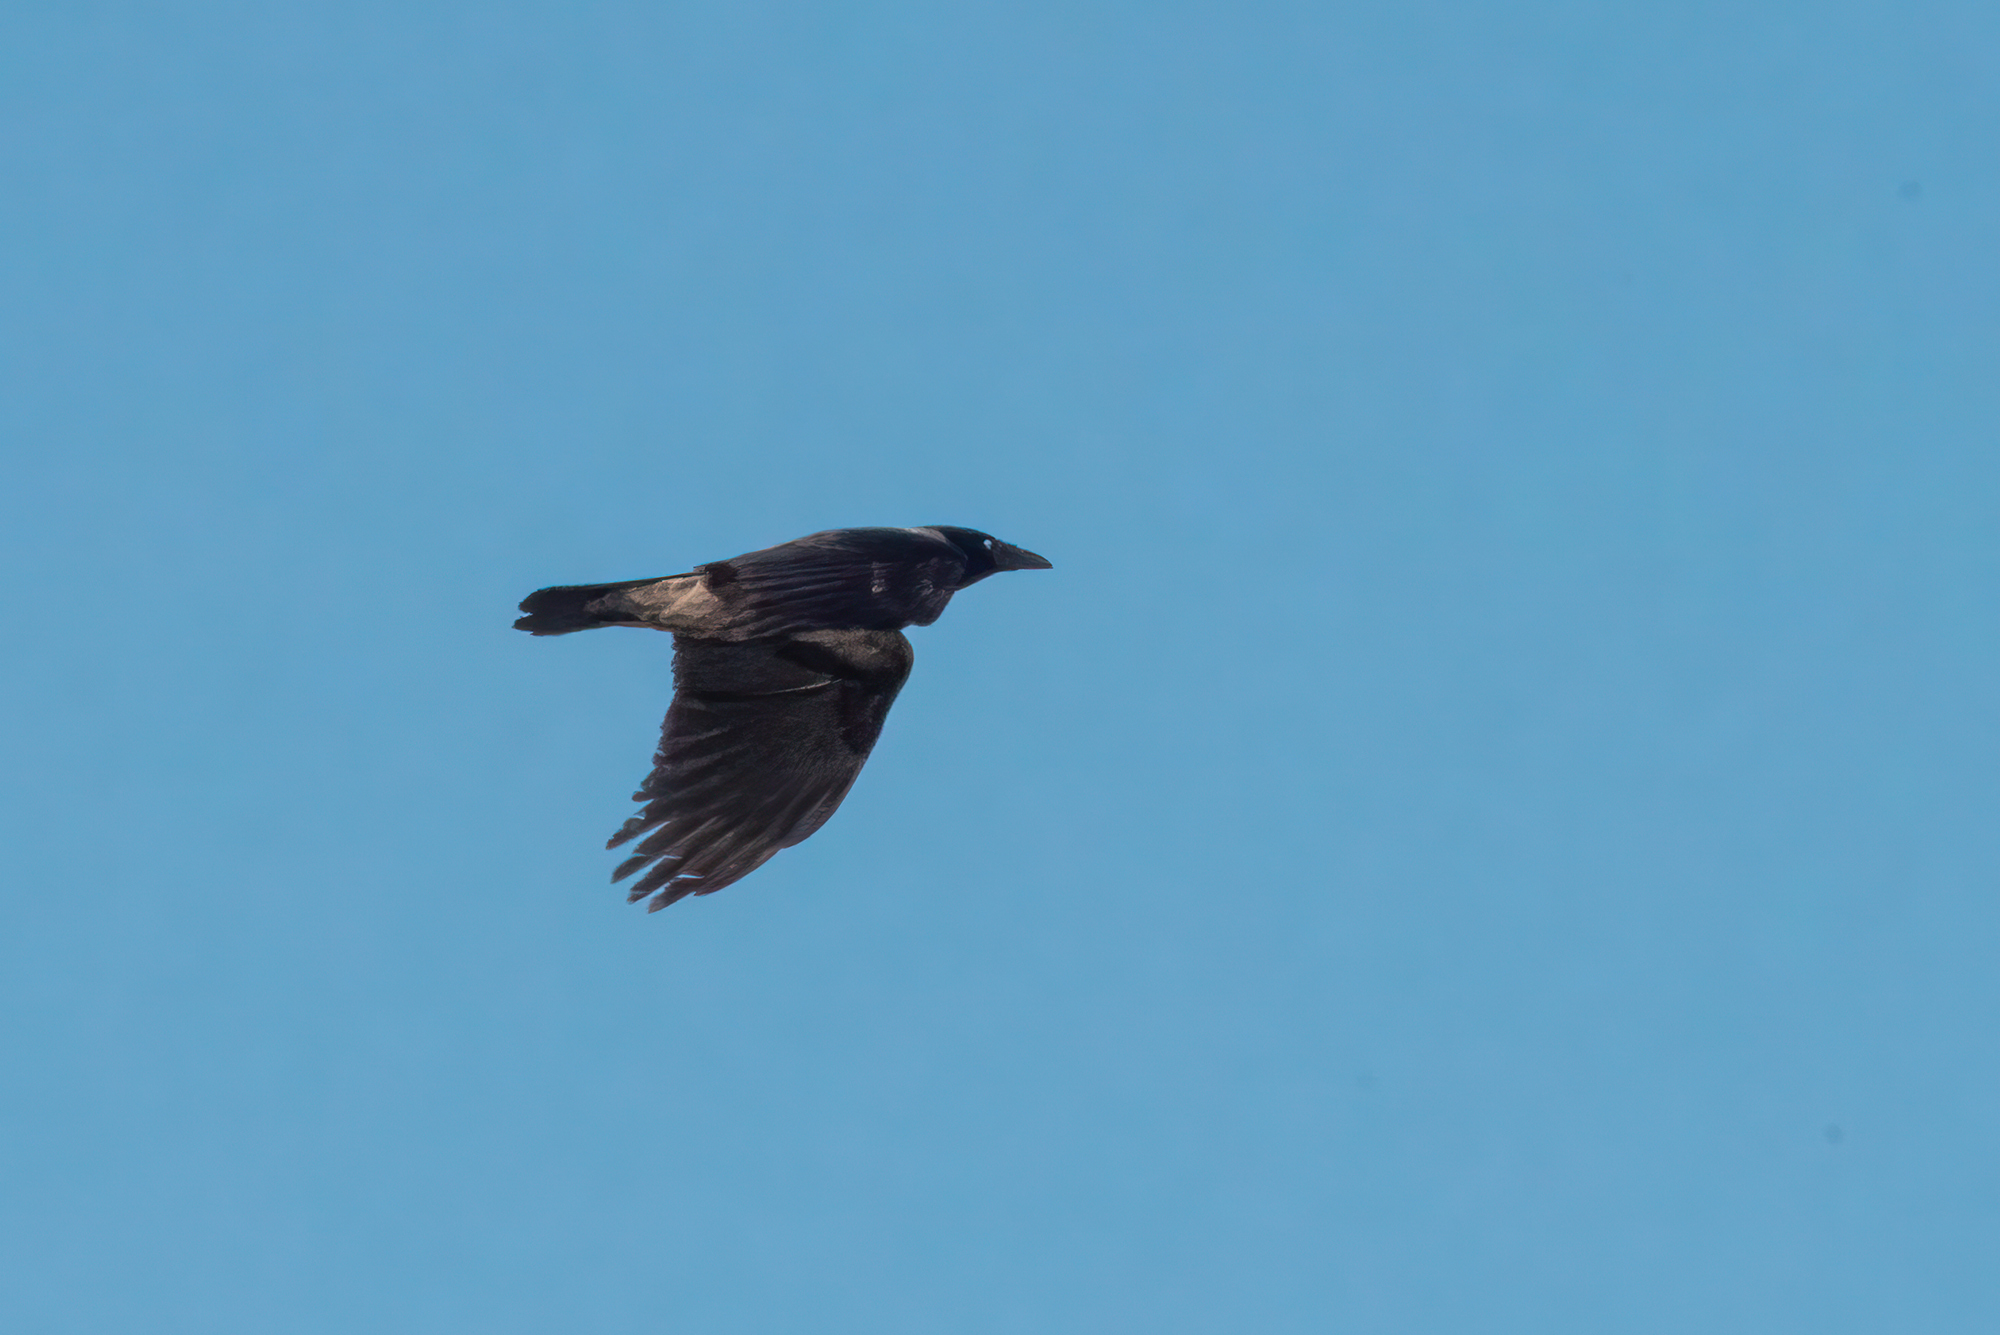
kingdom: Animalia
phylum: Chordata
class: Aves
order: Passeriformes
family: Corvidae
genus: Corvus
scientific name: Corvus cornix
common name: Hooded crow
